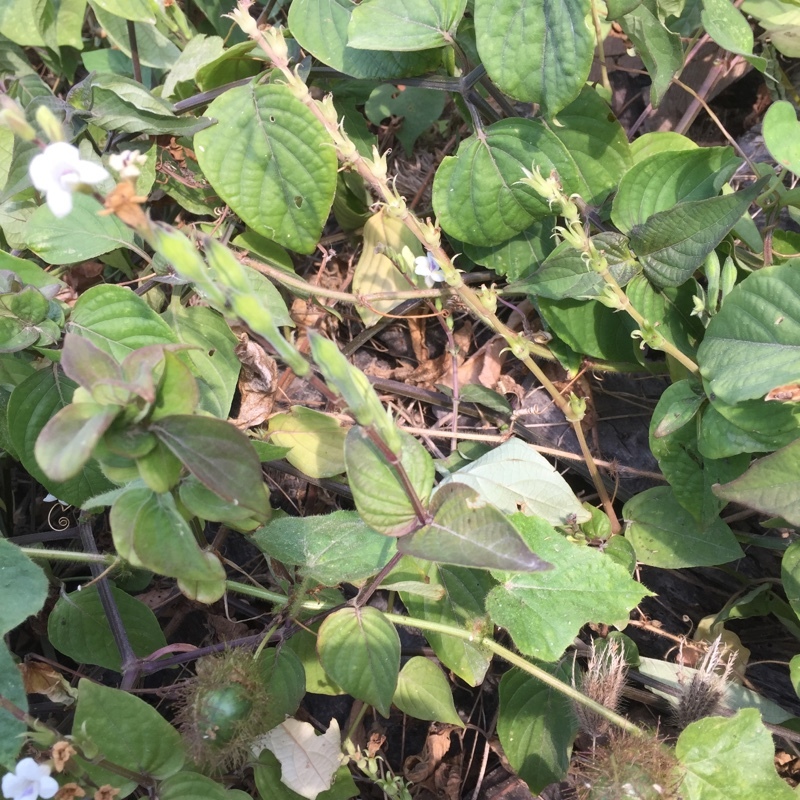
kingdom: Plantae
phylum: Tracheophyta
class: Magnoliopsida
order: Lamiales
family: Acanthaceae
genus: Asystasia
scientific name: Asystasia intrusa
